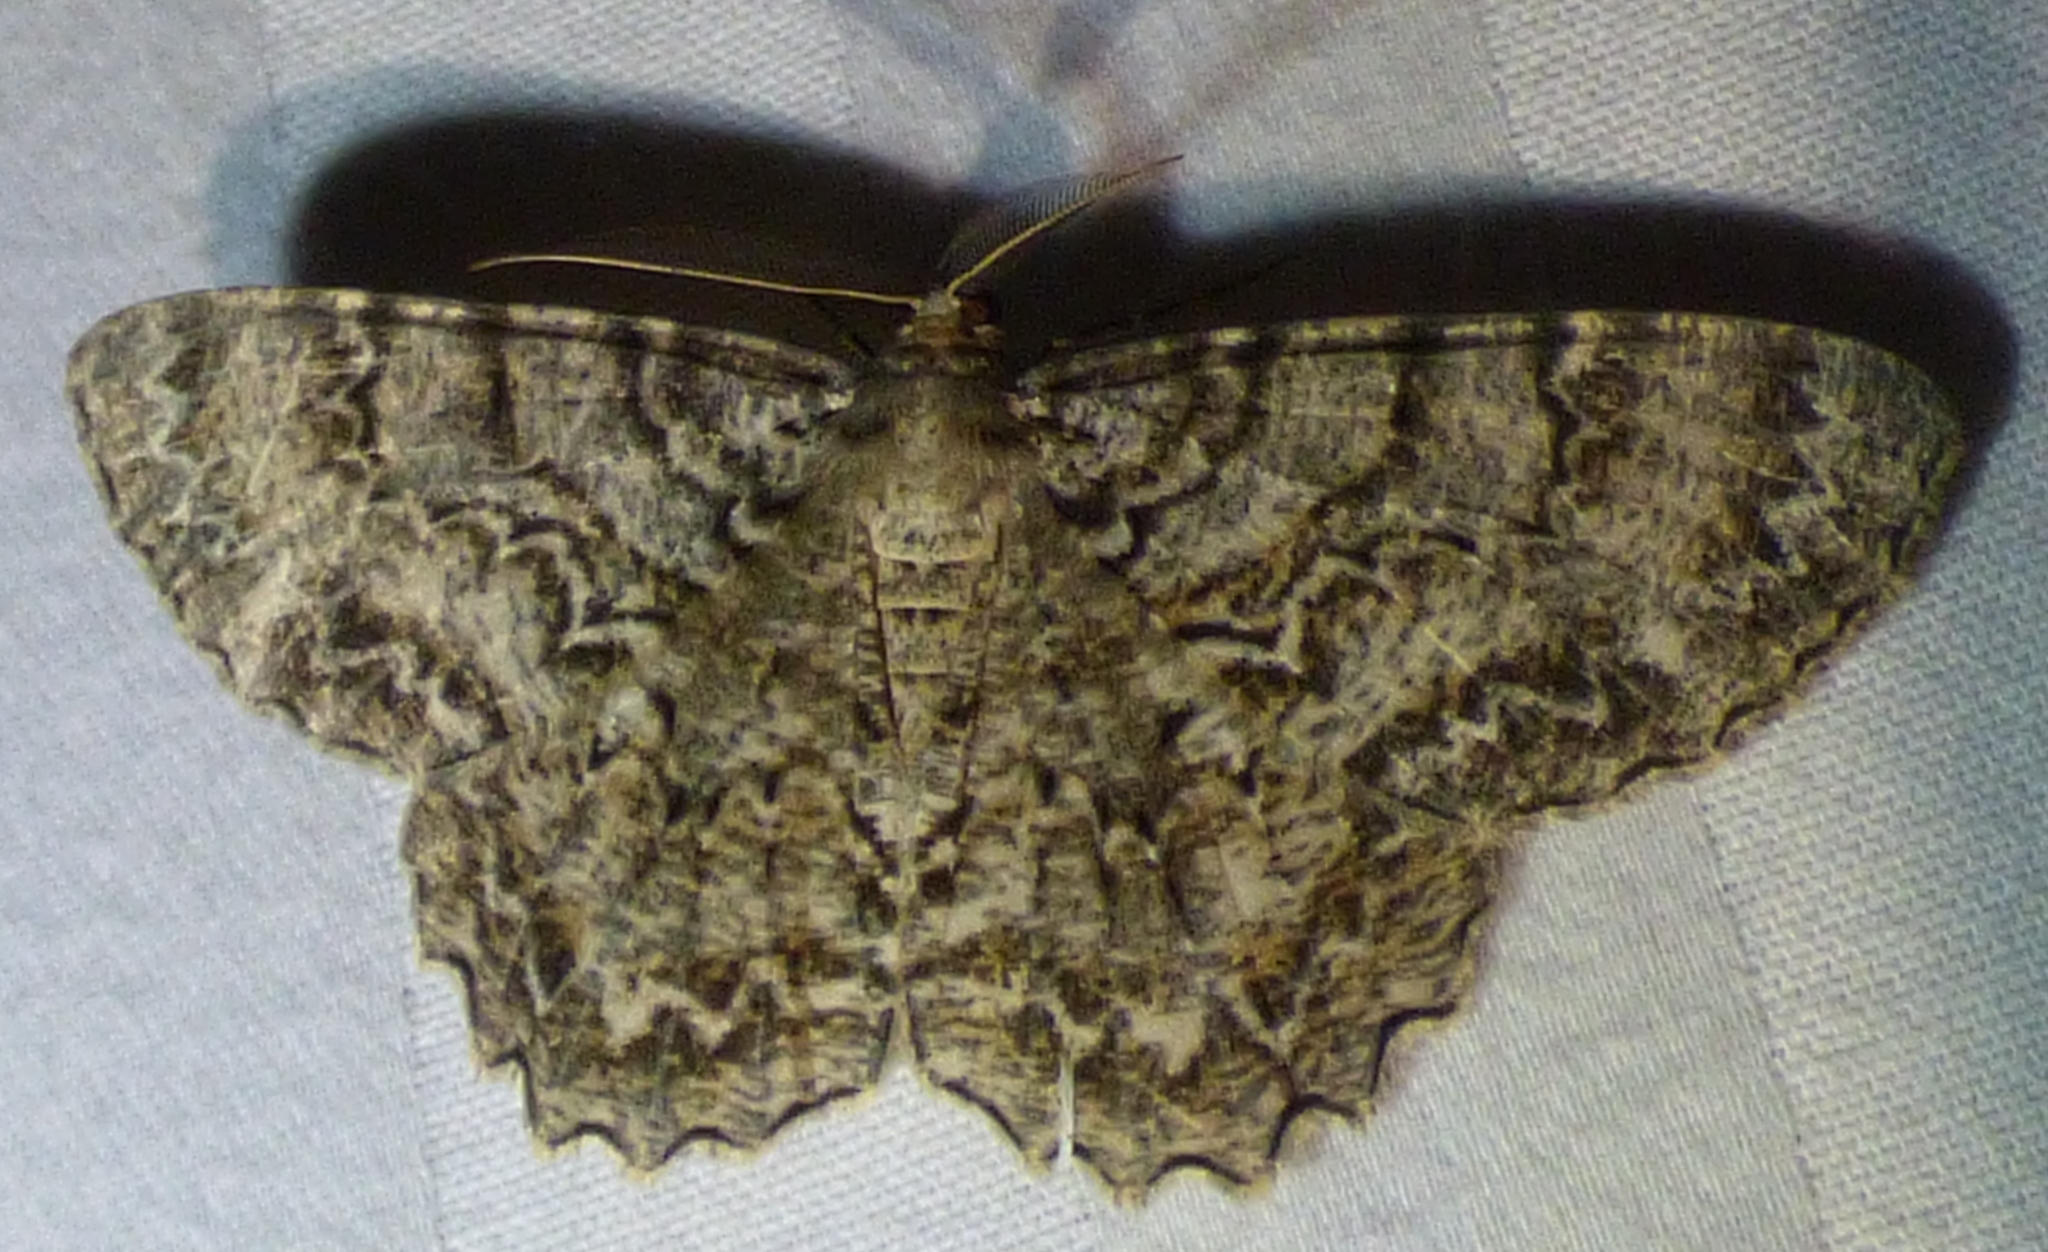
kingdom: Animalia
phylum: Arthropoda
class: Insecta
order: Lepidoptera
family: Geometridae
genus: Epimecis
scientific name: Epimecis hortaria
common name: Tulip-tree beauty
